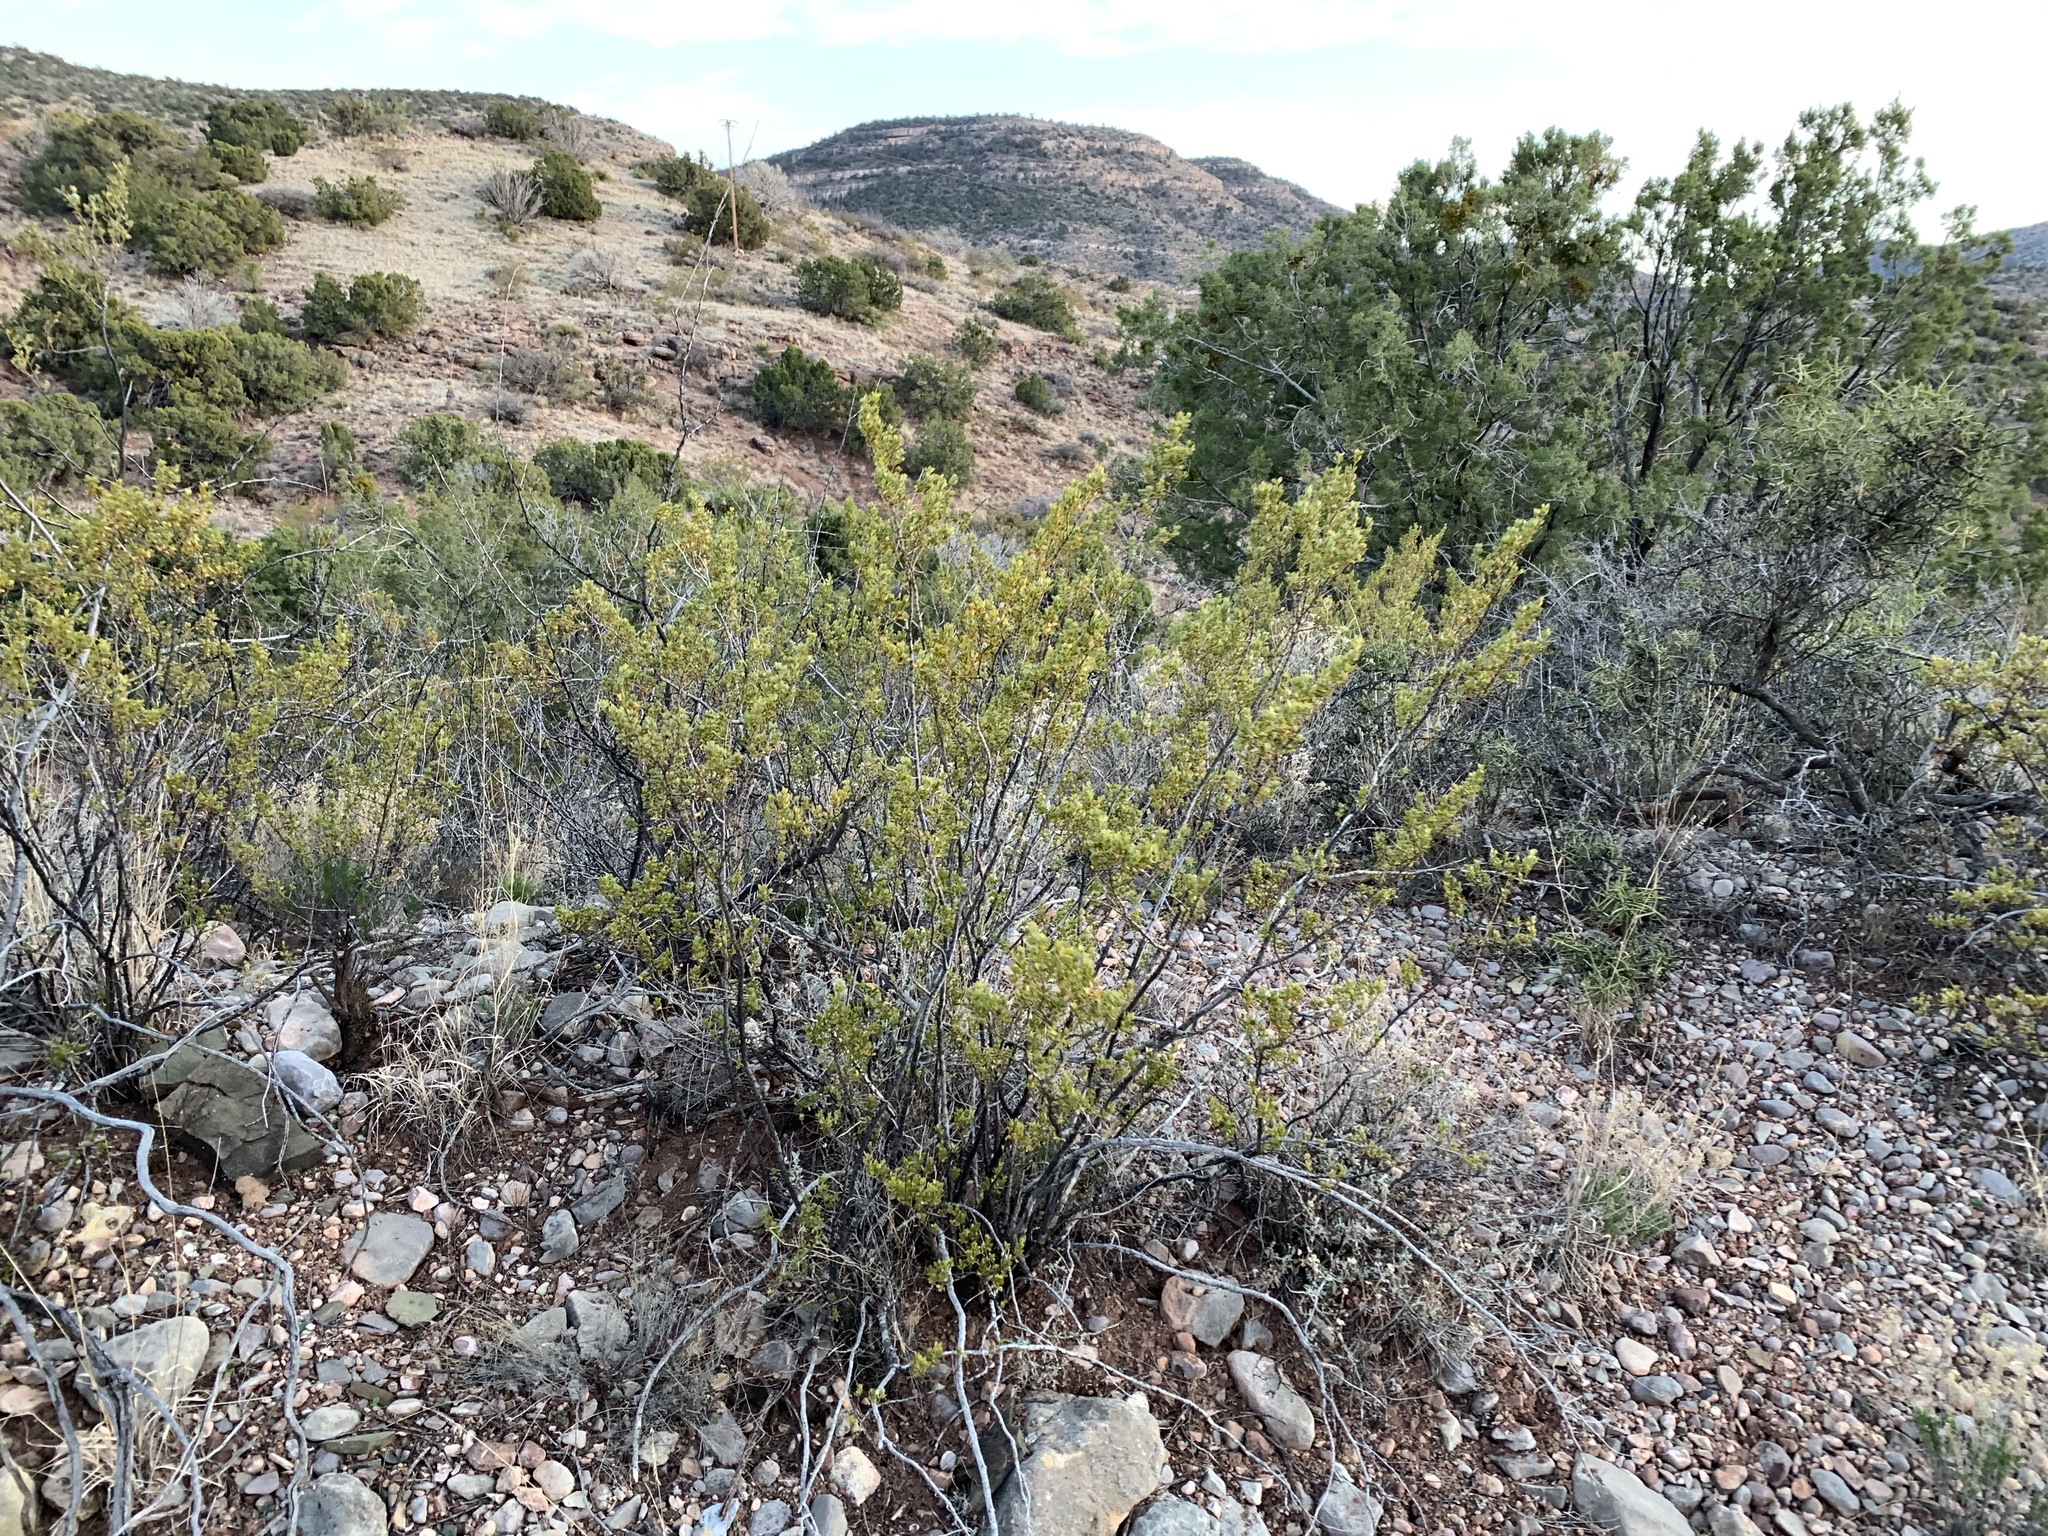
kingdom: Plantae
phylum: Tracheophyta
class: Magnoliopsida
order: Zygophyllales
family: Zygophyllaceae
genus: Larrea
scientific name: Larrea tridentata
